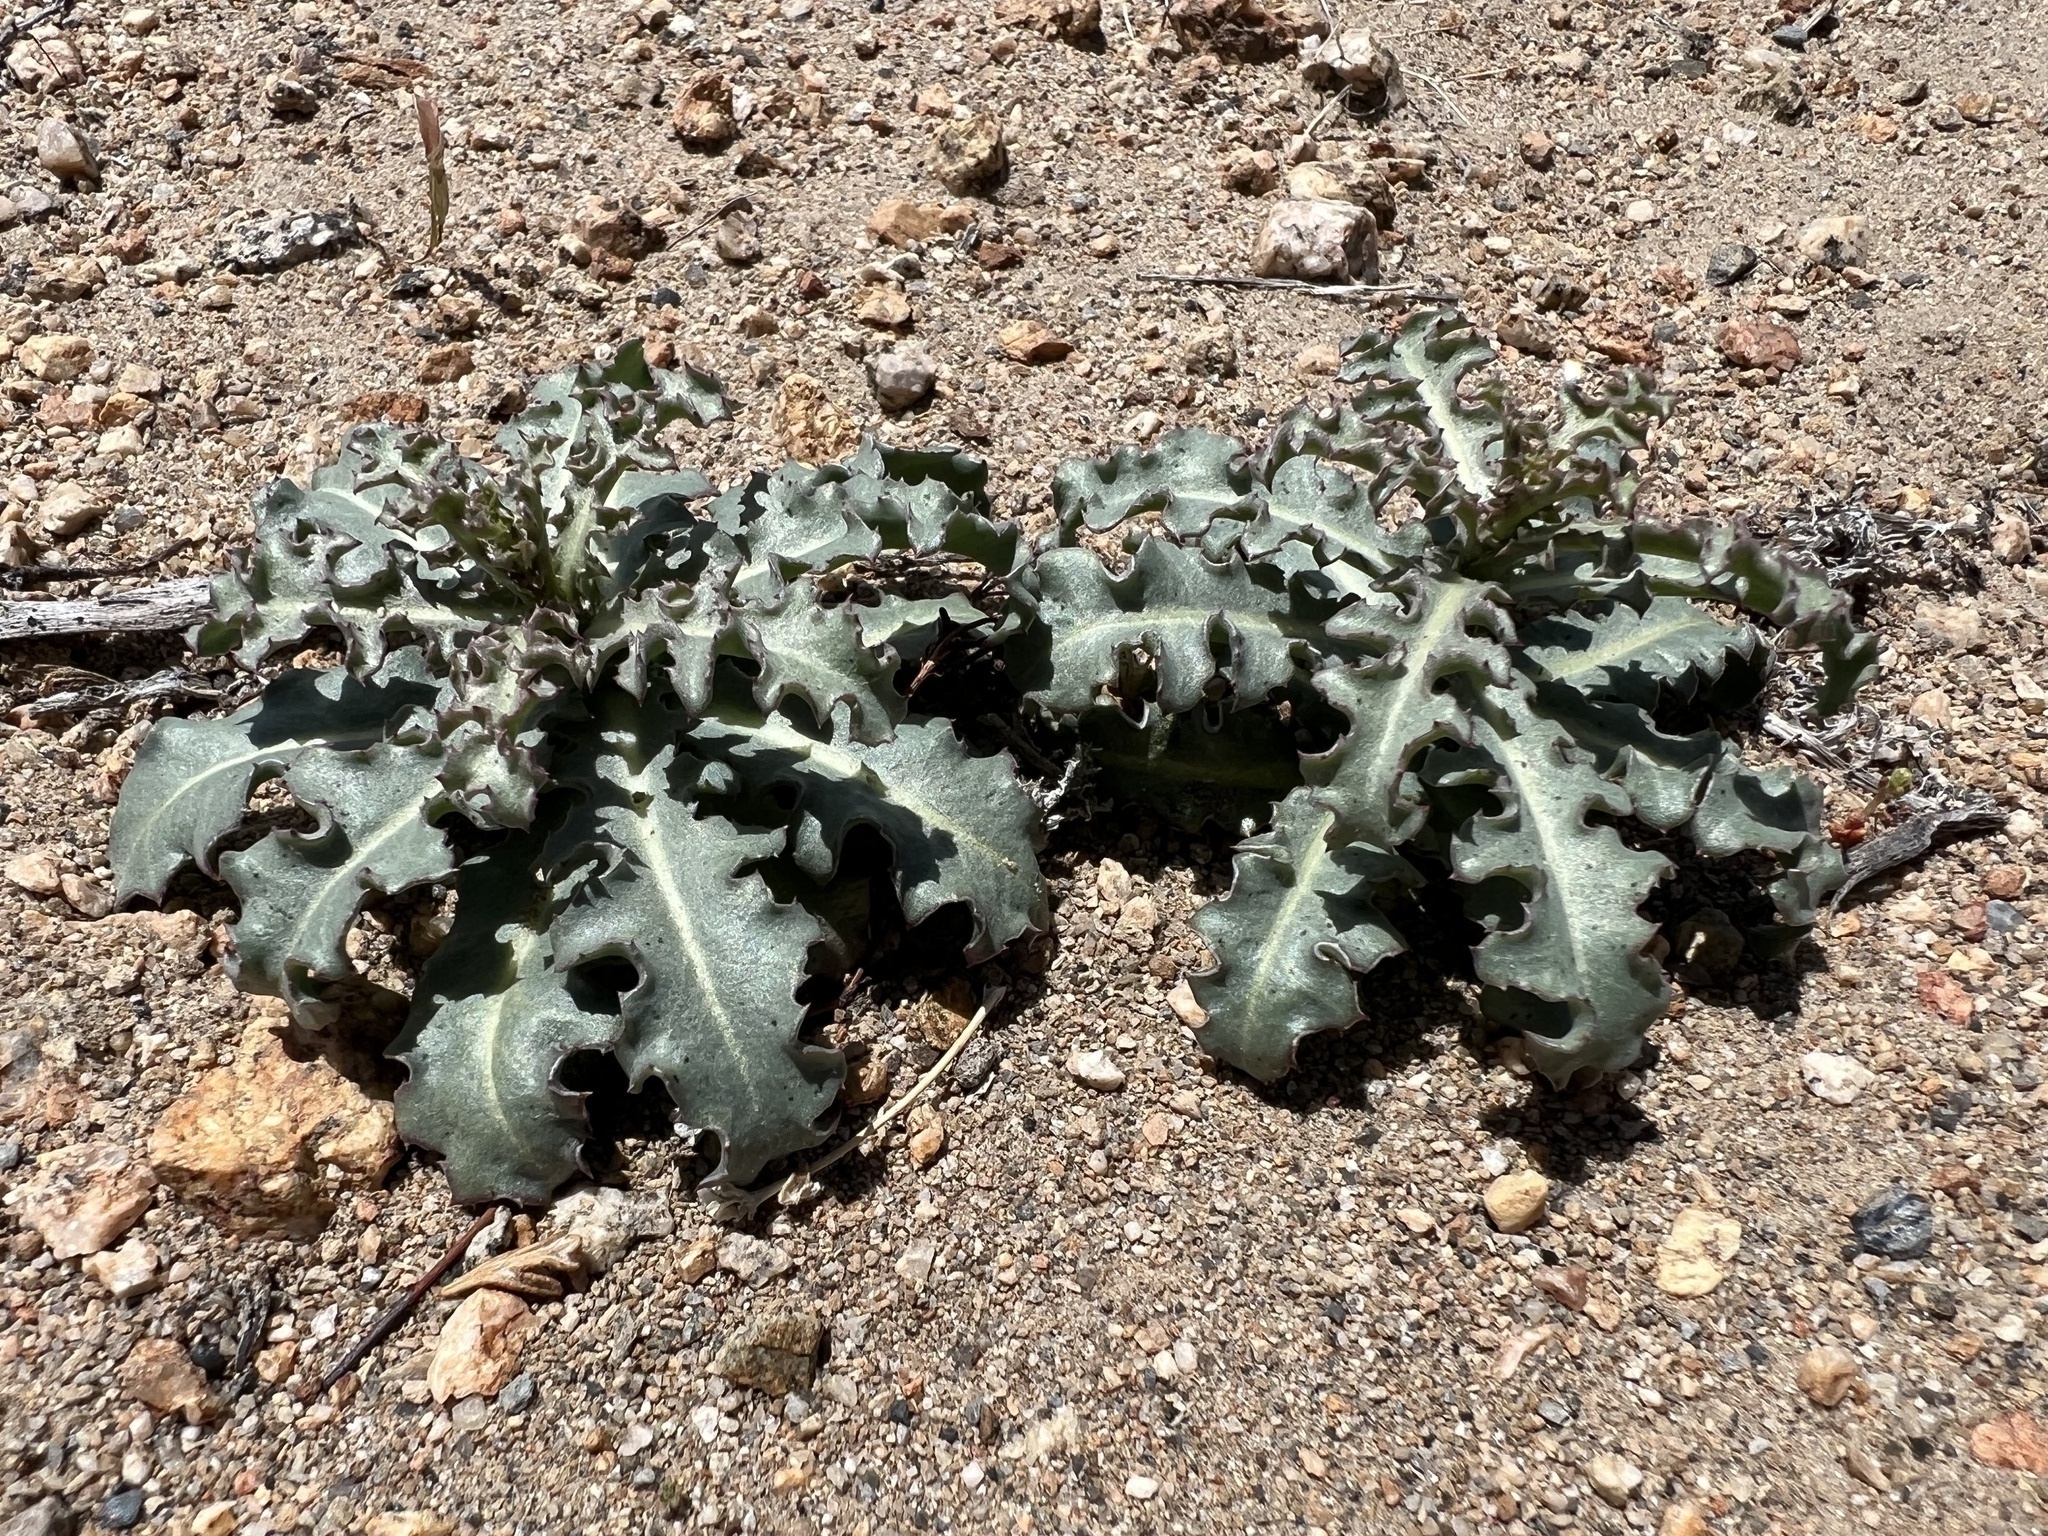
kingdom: Plantae
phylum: Tracheophyta
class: Magnoliopsida
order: Asterales
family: Asteraceae
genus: Stephanomeria
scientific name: Stephanomeria parryi
